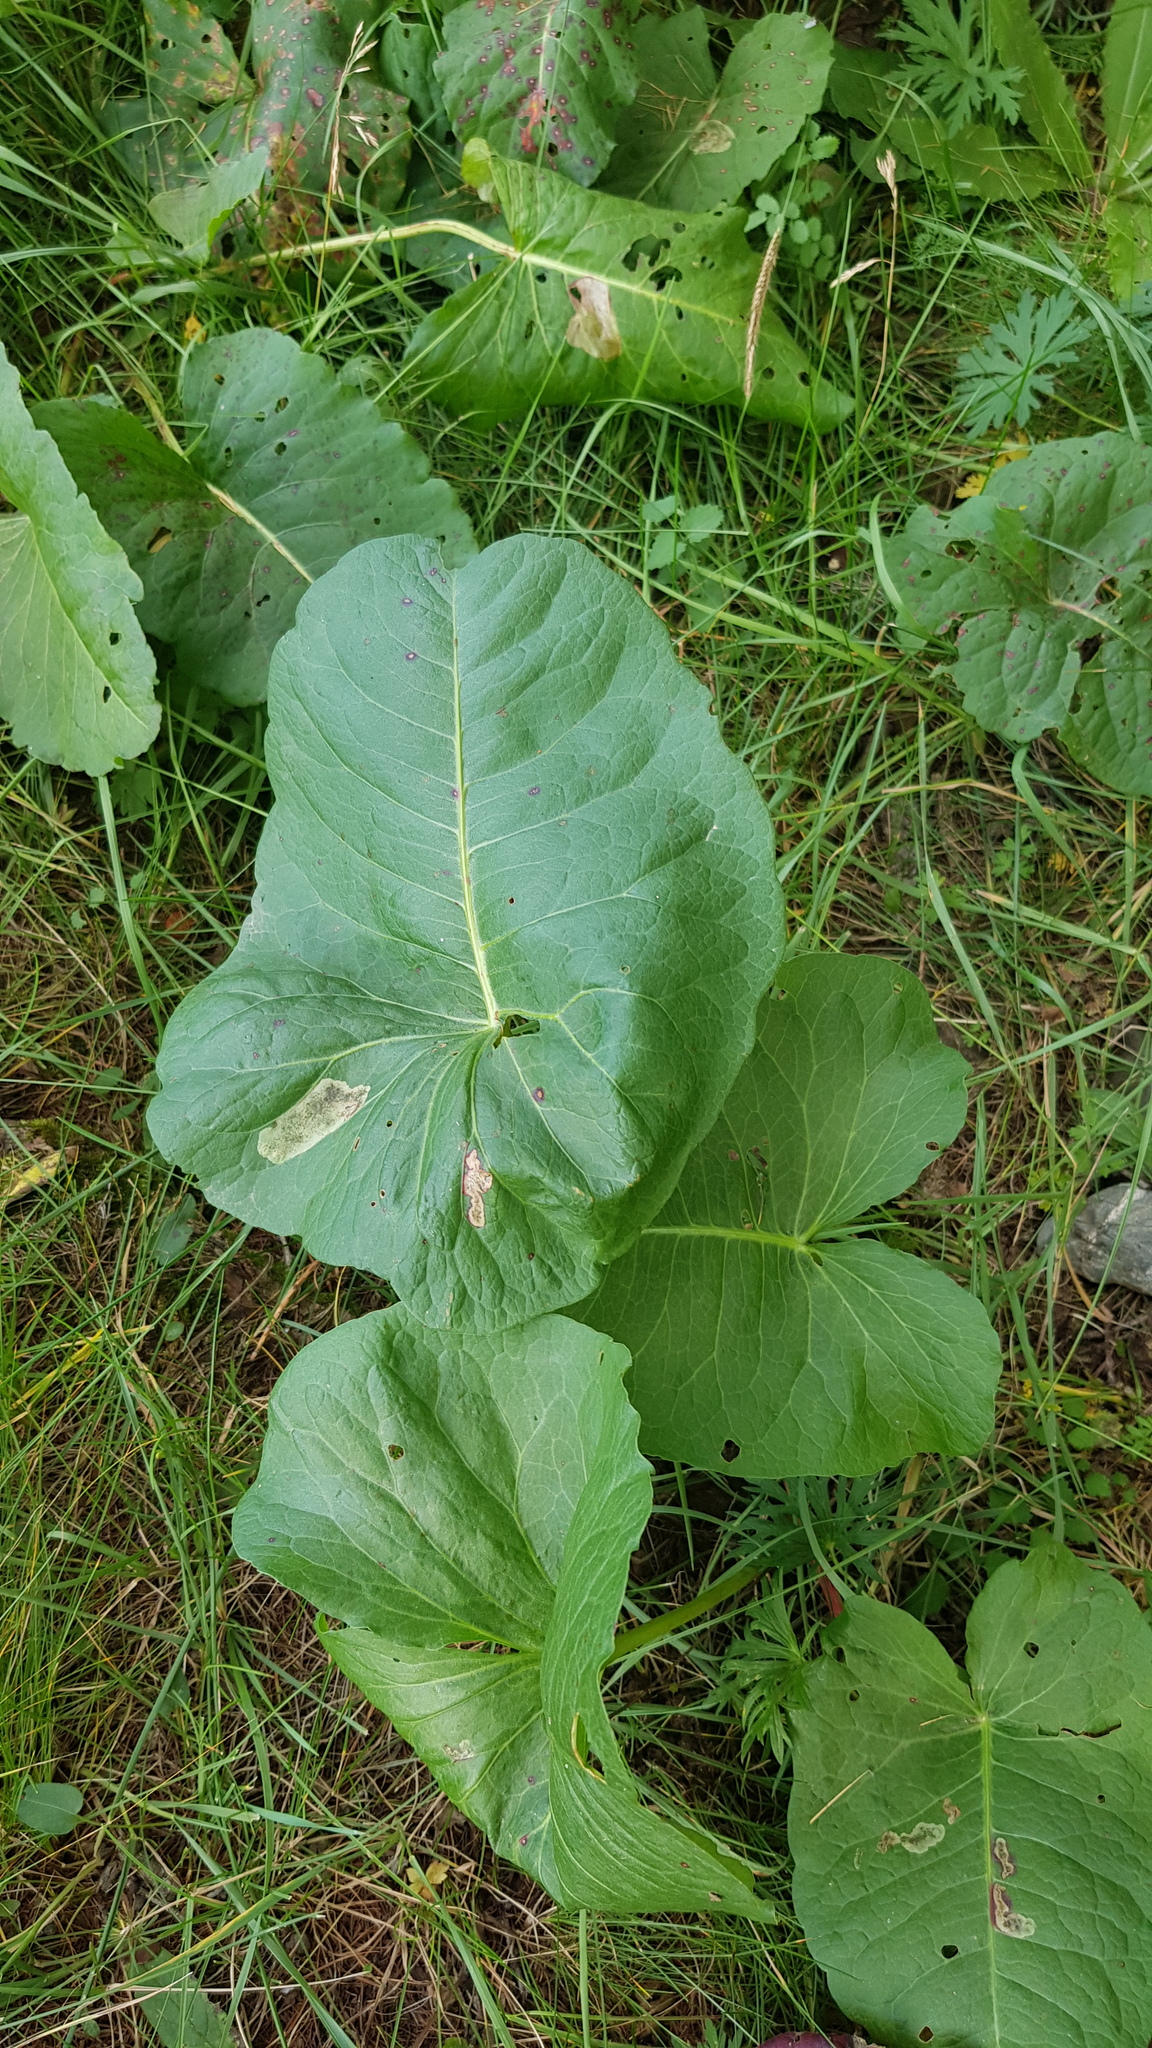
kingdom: Plantae
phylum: Tracheophyta
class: Magnoliopsida
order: Asterales
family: Asteraceae
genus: Ligularia
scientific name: Ligularia sibirica
